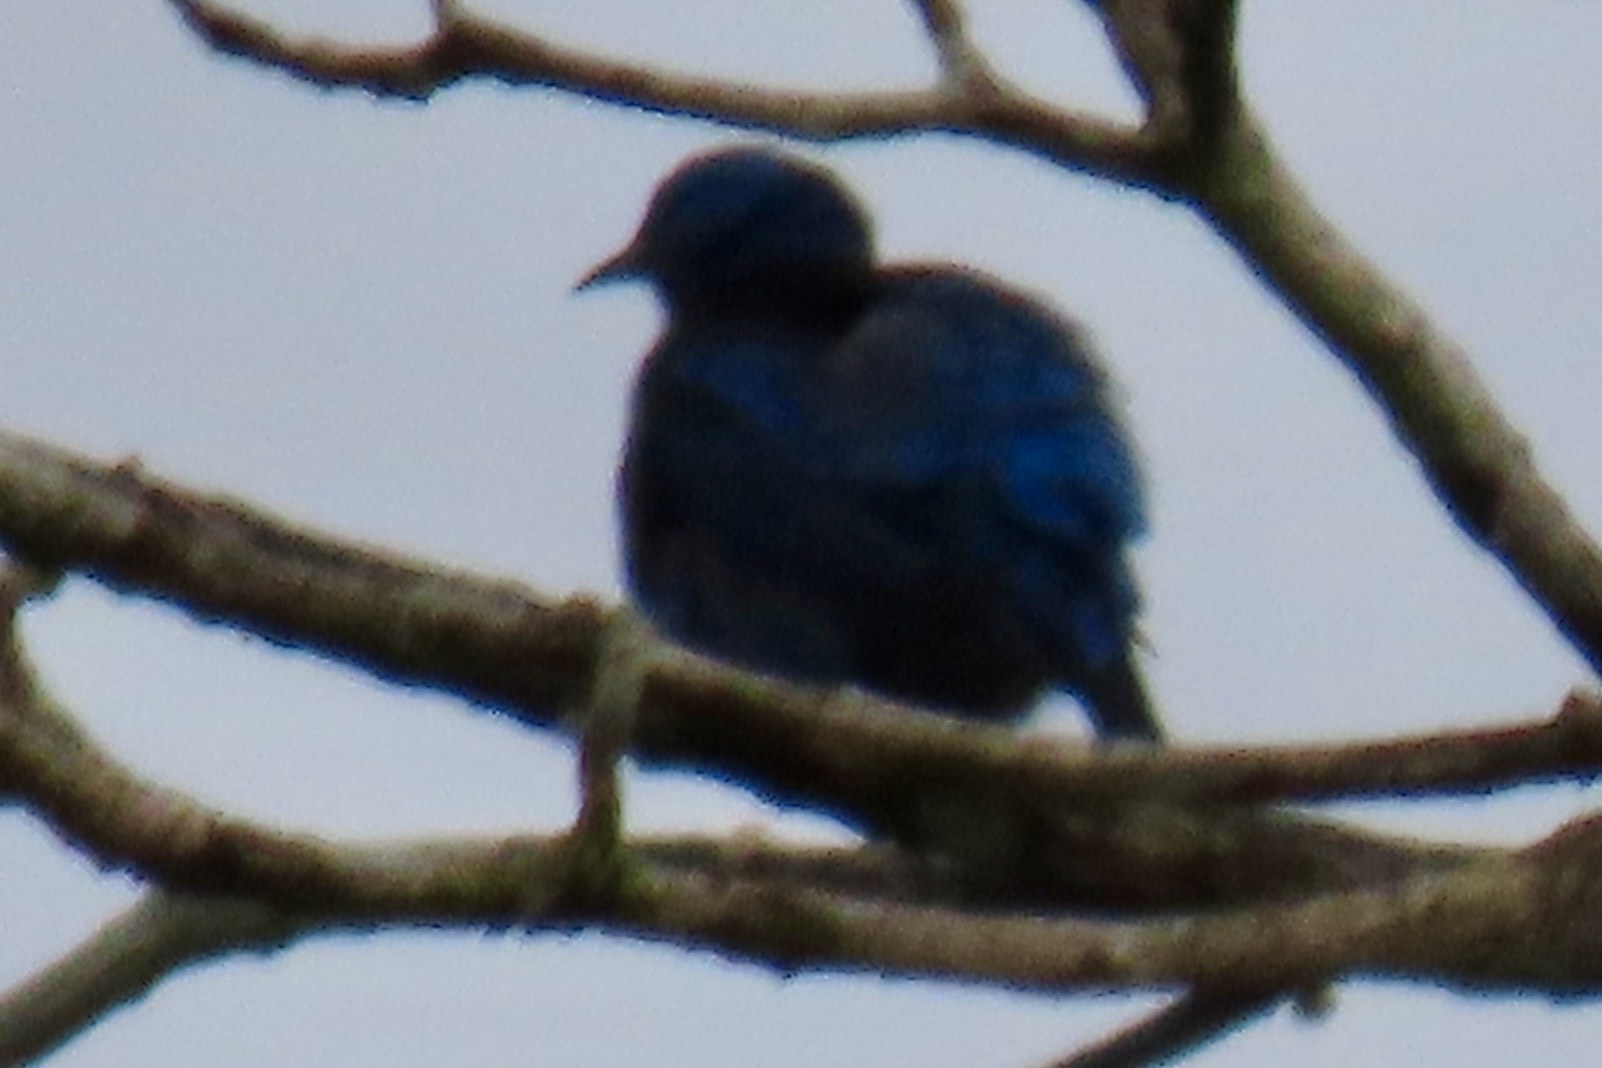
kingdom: Animalia
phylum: Chordata
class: Aves
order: Passeriformes
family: Thraupidae
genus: Dacnis
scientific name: Dacnis cayana
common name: Blue dacnis
